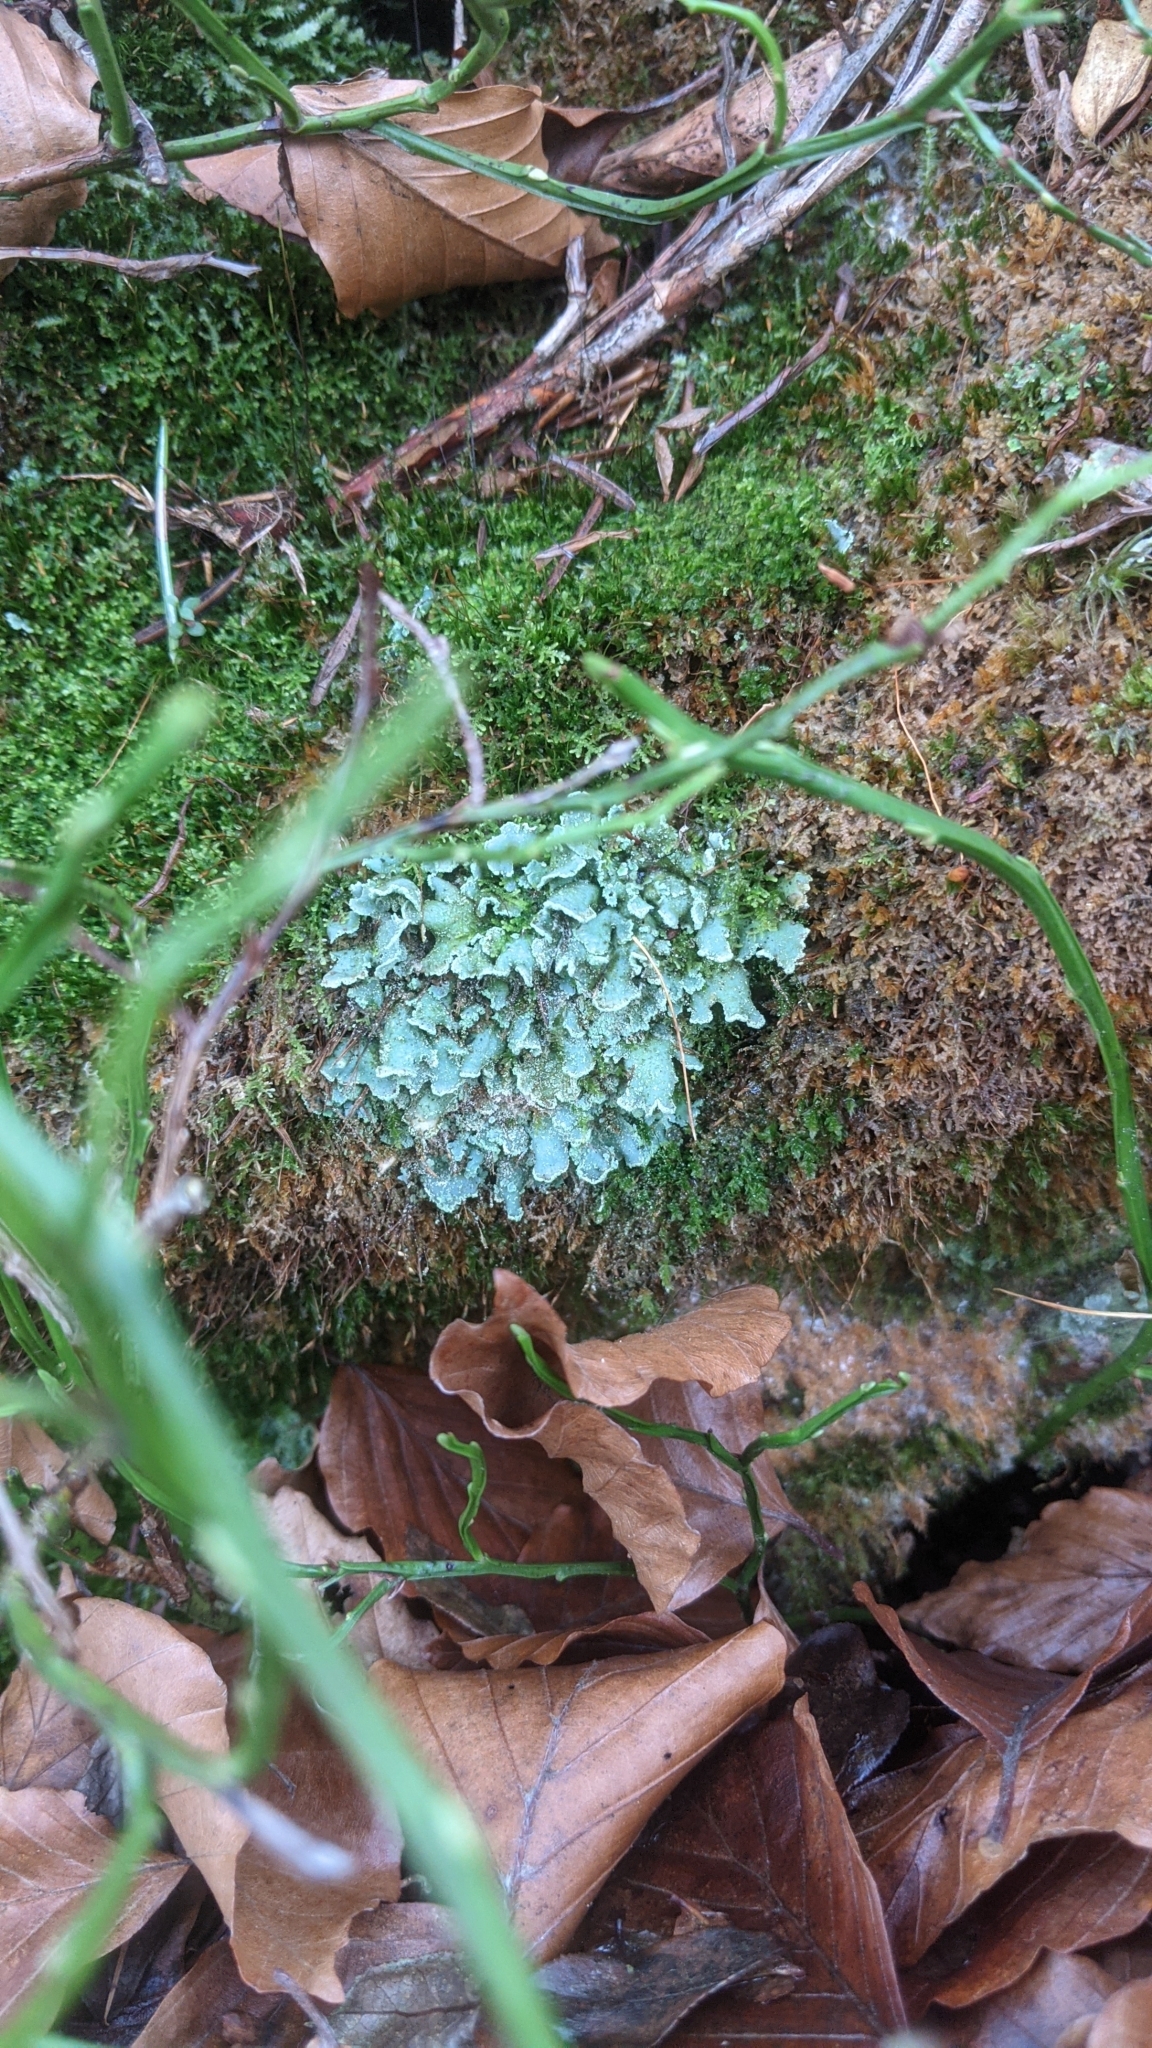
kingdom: Fungi
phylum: Ascomycota
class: Lecanoromycetes
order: Lecanorales
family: Cladoniaceae
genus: Cladonia
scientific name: Cladonia digitata
